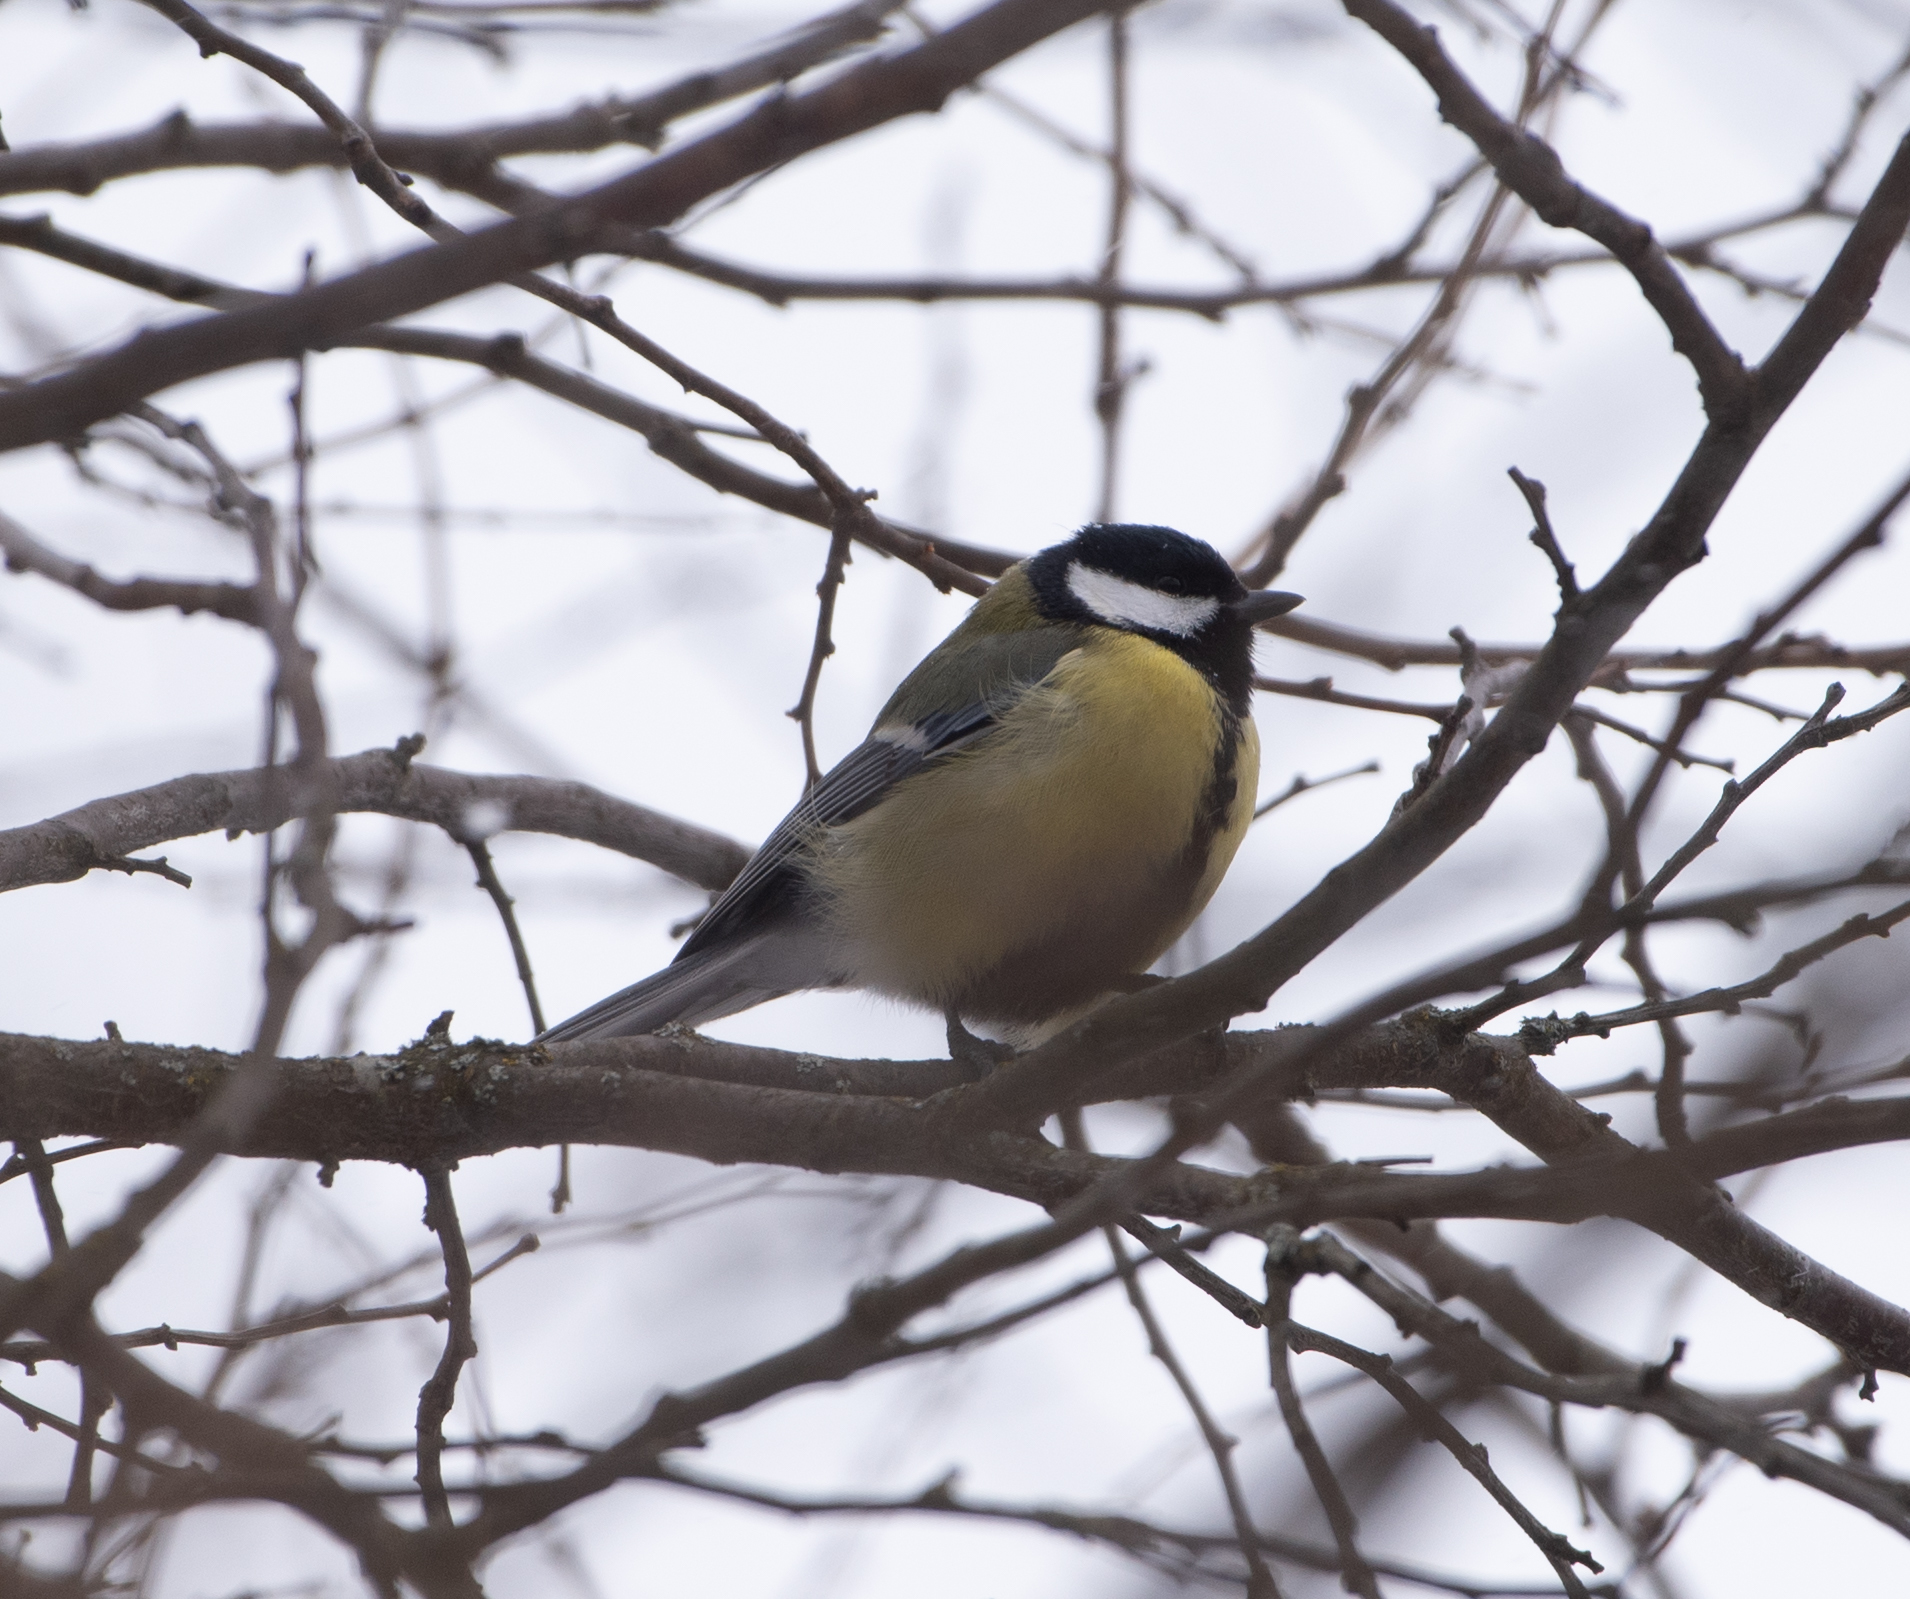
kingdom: Animalia
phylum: Chordata
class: Aves
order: Passeriformes
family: Paridae
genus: Parus
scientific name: Parus major
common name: Great tit
